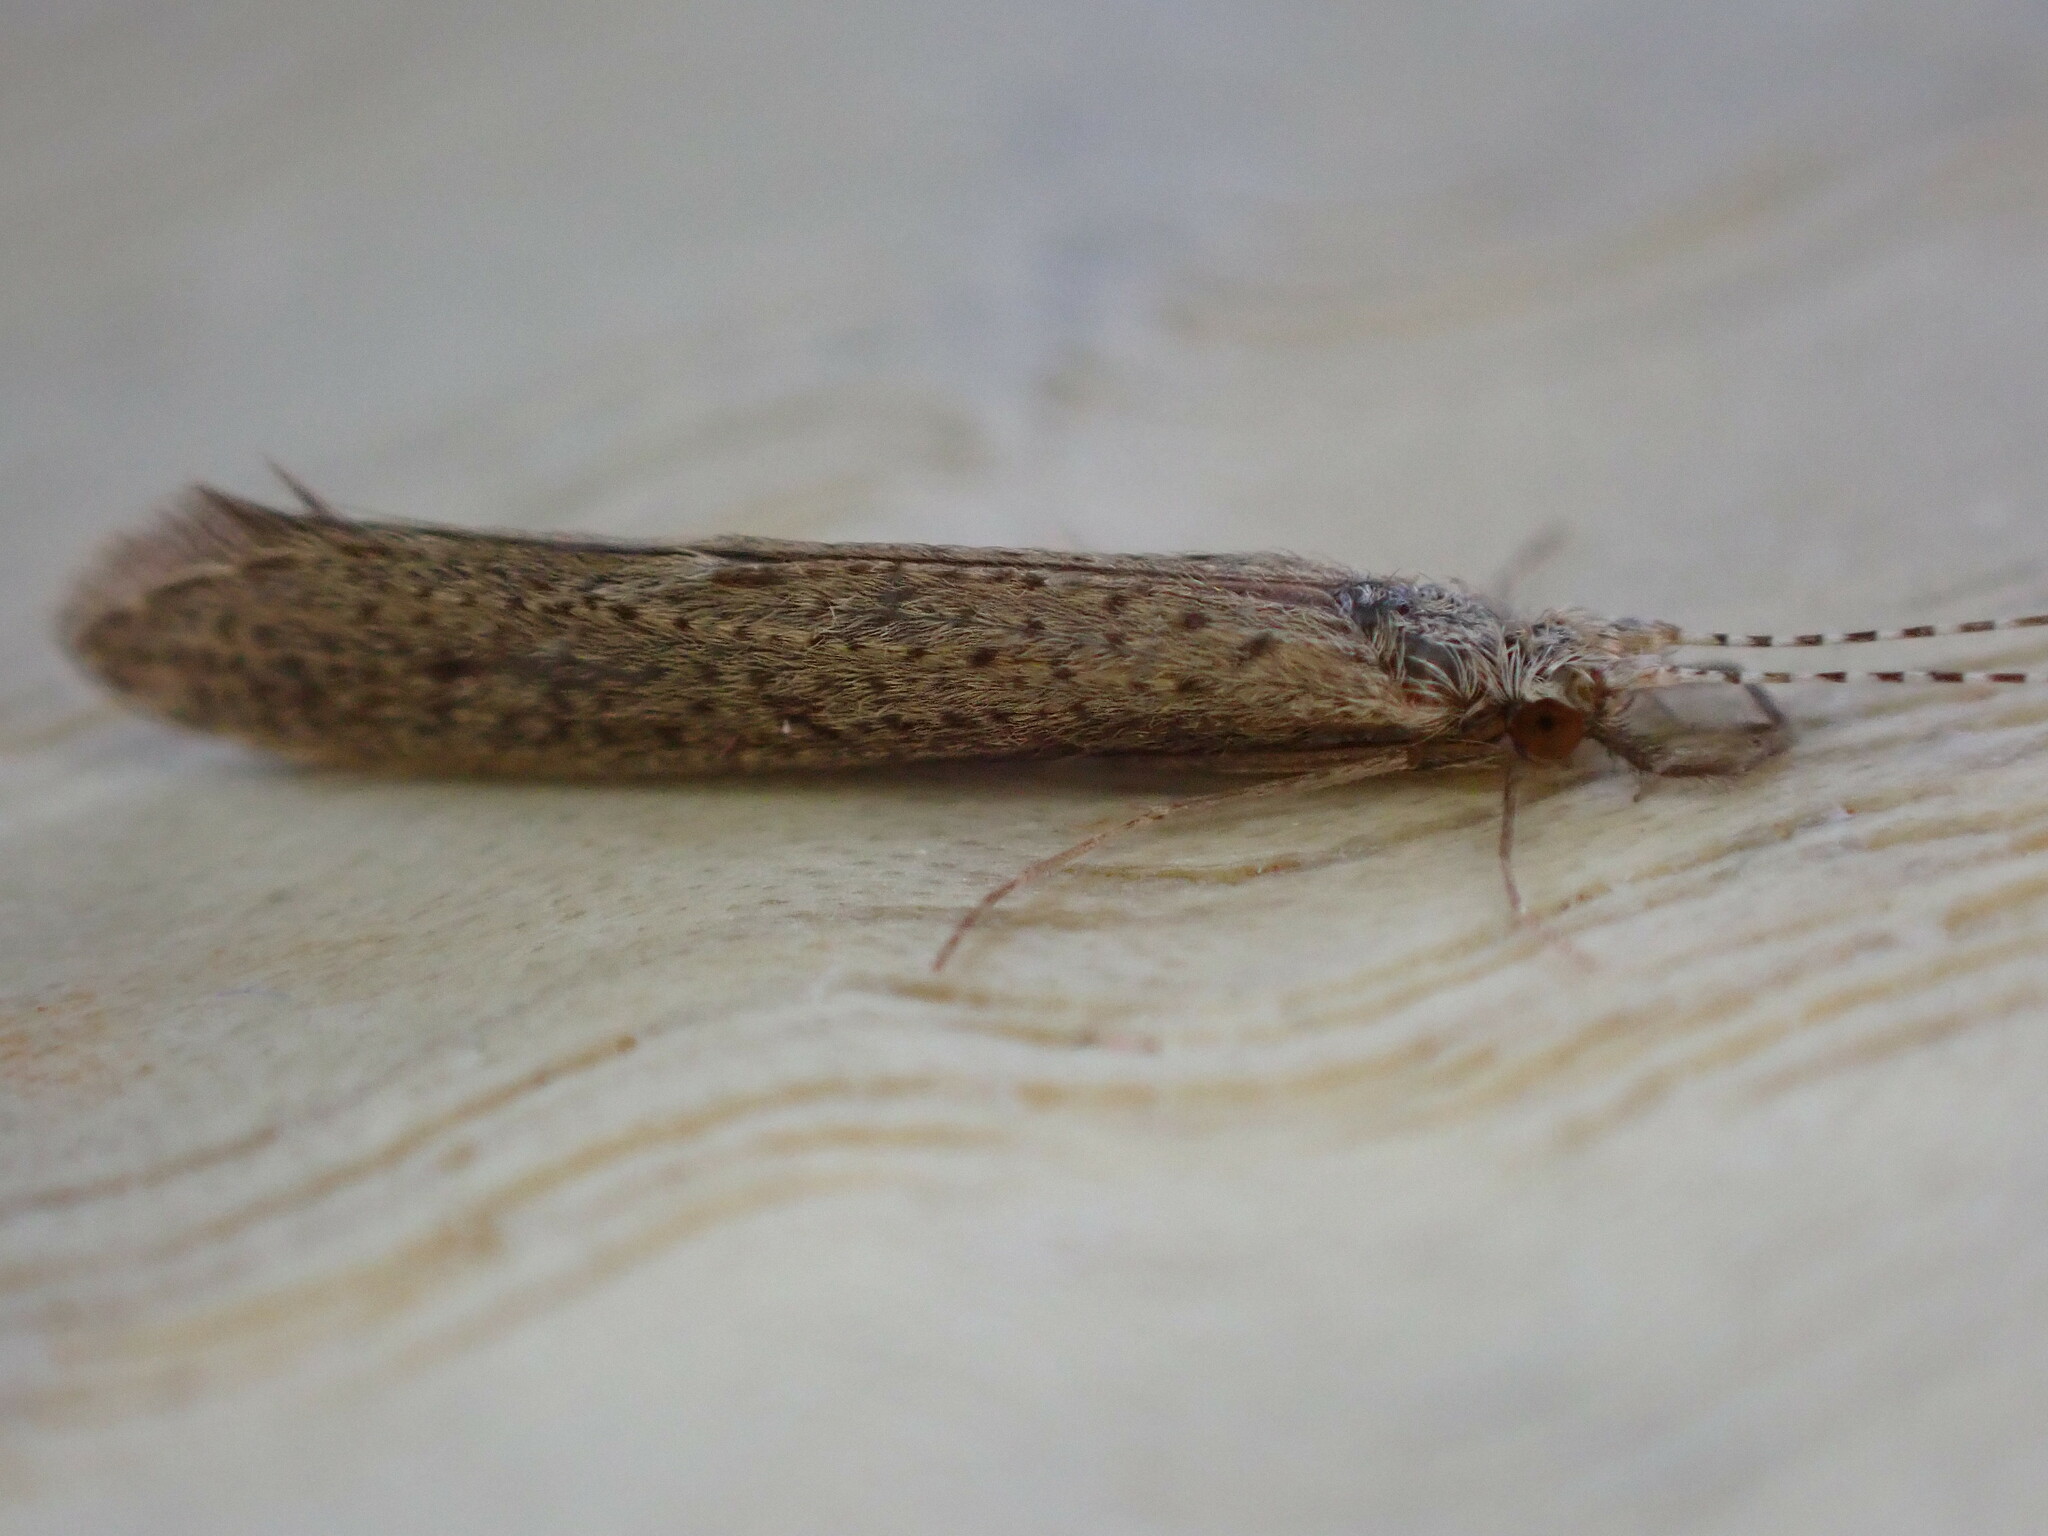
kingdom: Animalia
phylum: Arthropoda
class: Insecta
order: Trichoptera
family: Leptoceridae
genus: Leptocerus
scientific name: Leptocerus tineiformis
